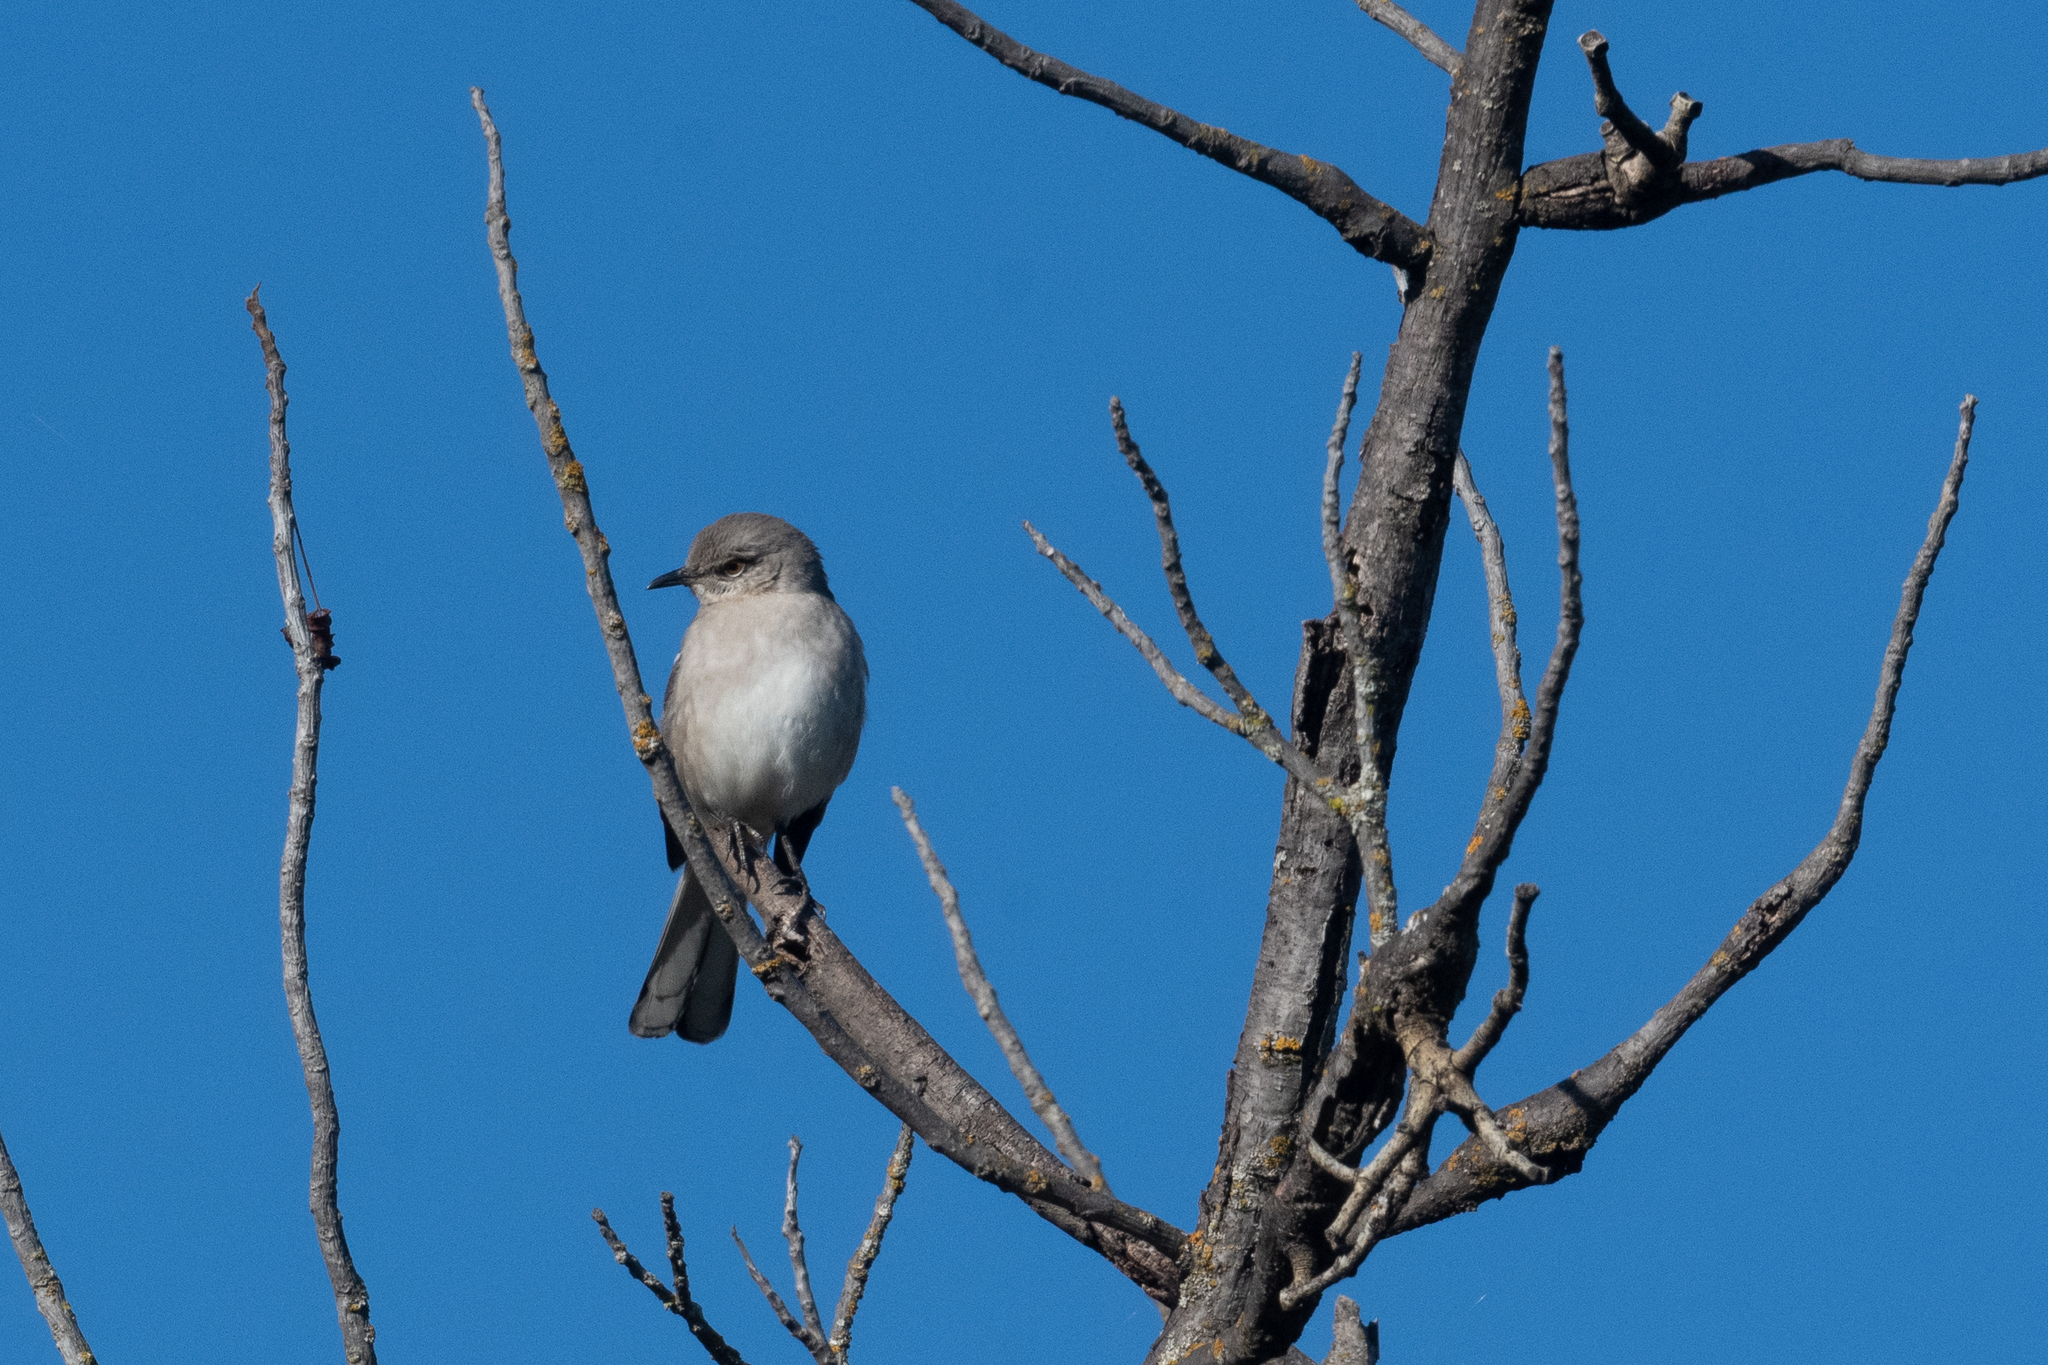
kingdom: Animalia
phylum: Chordata
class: Aves
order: Passeriformes
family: Mimidae
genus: Mimus
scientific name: Mimus polyglottos
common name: Northern mockingbird
